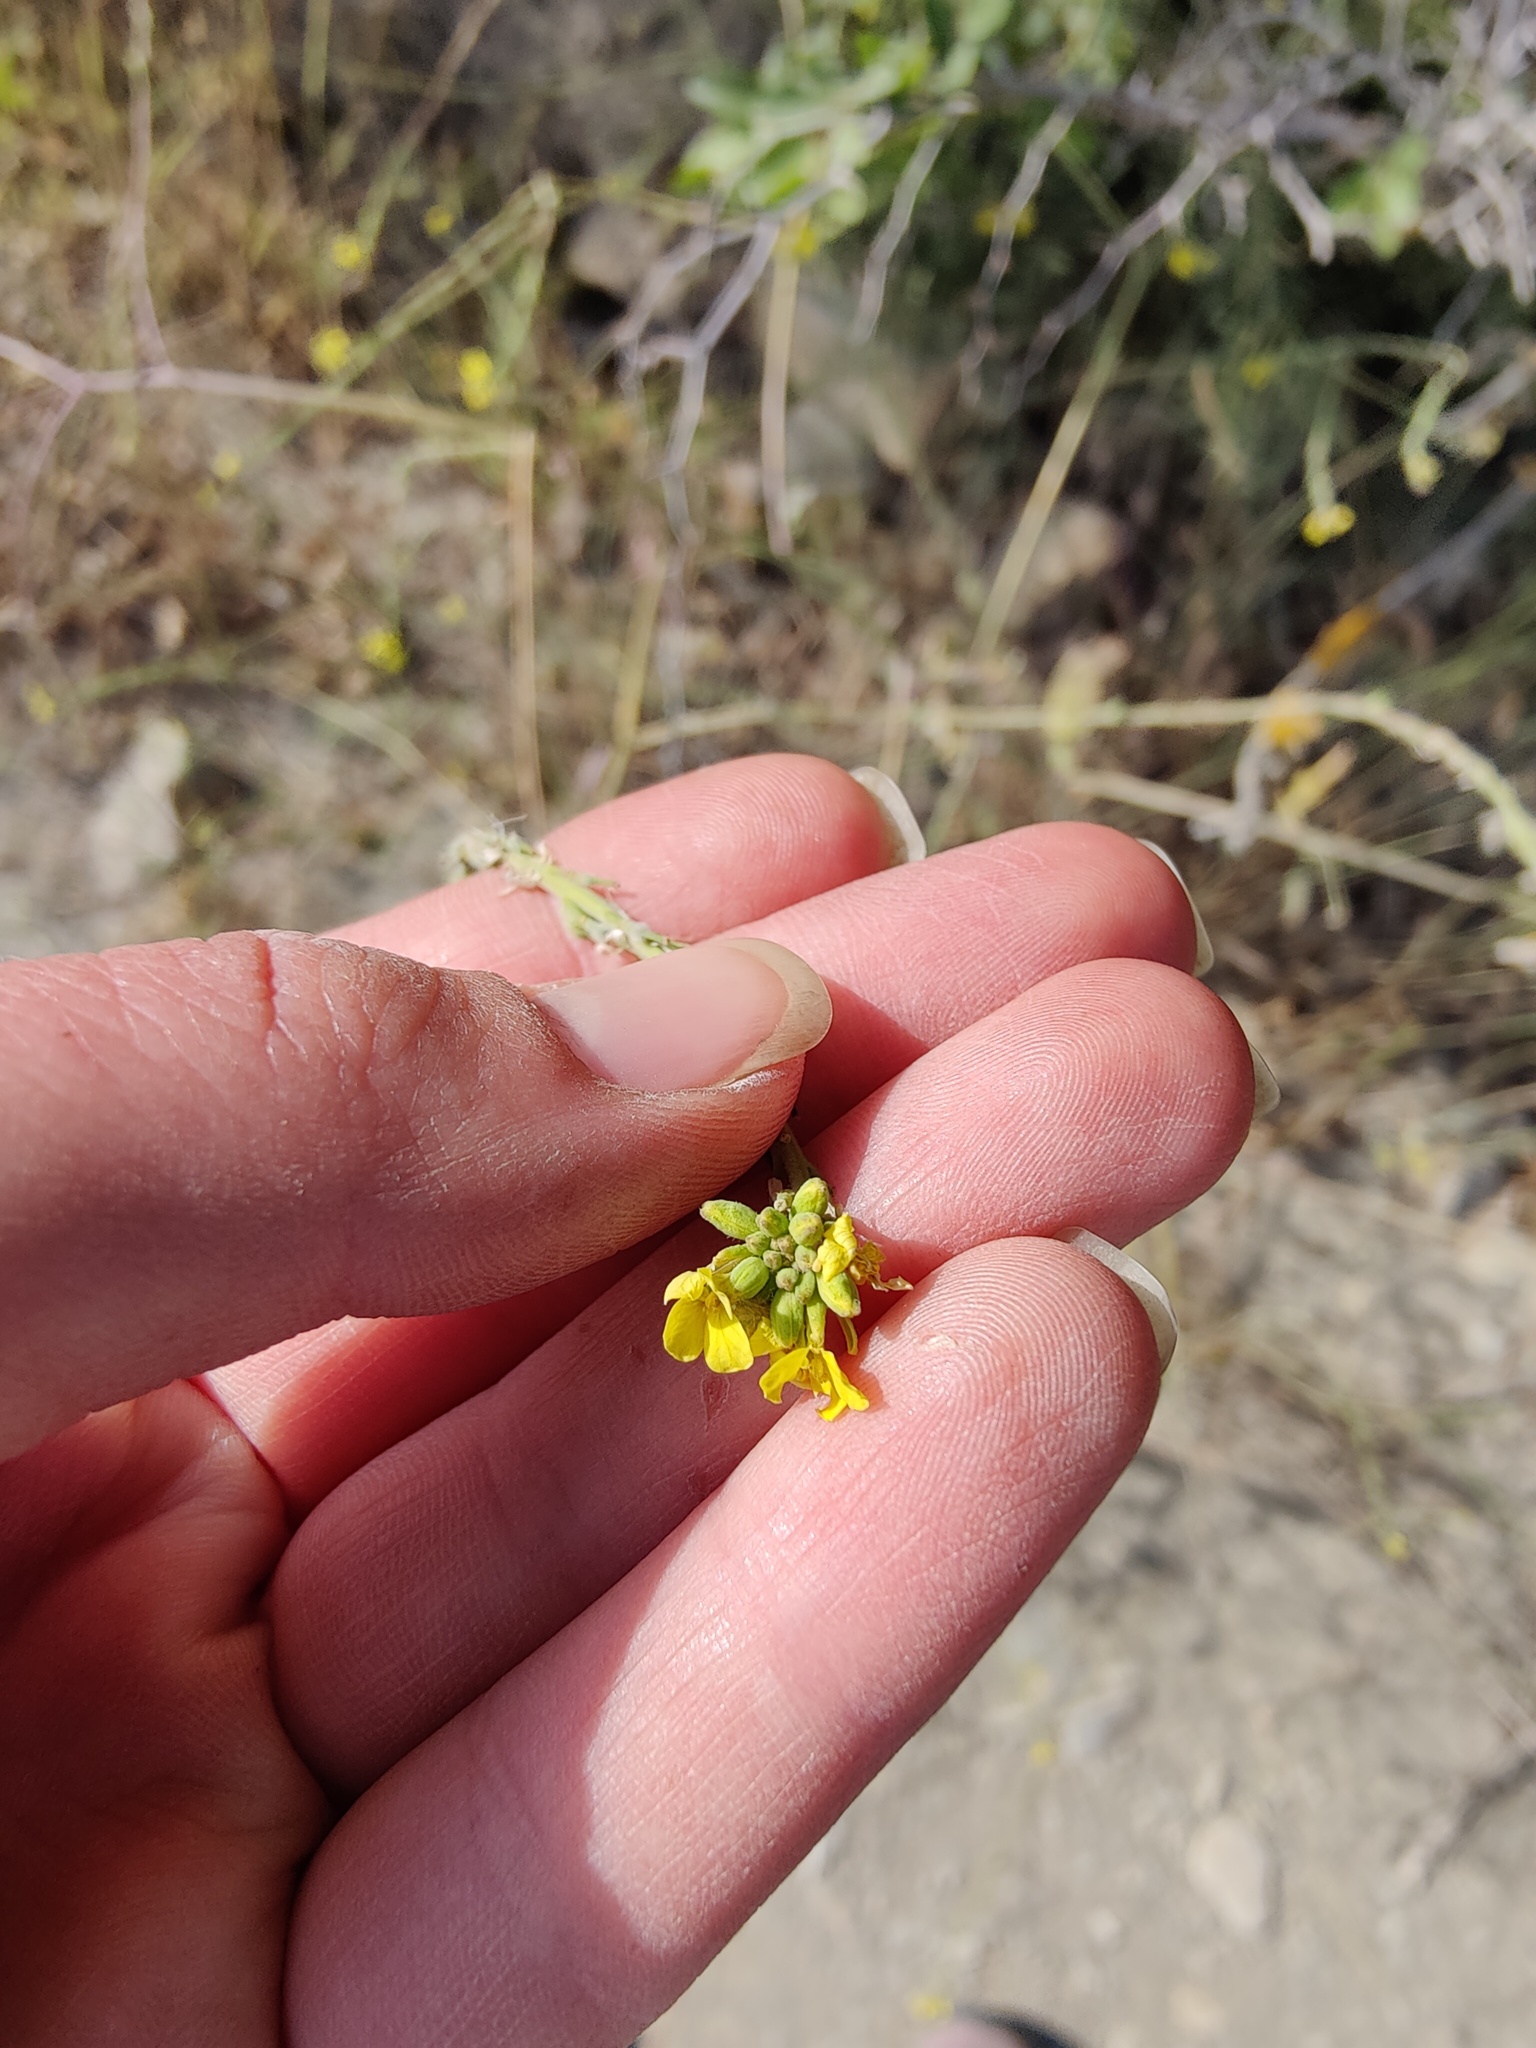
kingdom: Plantae
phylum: Tracheophyta
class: Magnoliopsida
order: Brassicales
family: Brassicaceae
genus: Sisymbrium
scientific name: Sisymbrium officinale
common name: Hedge mustard
